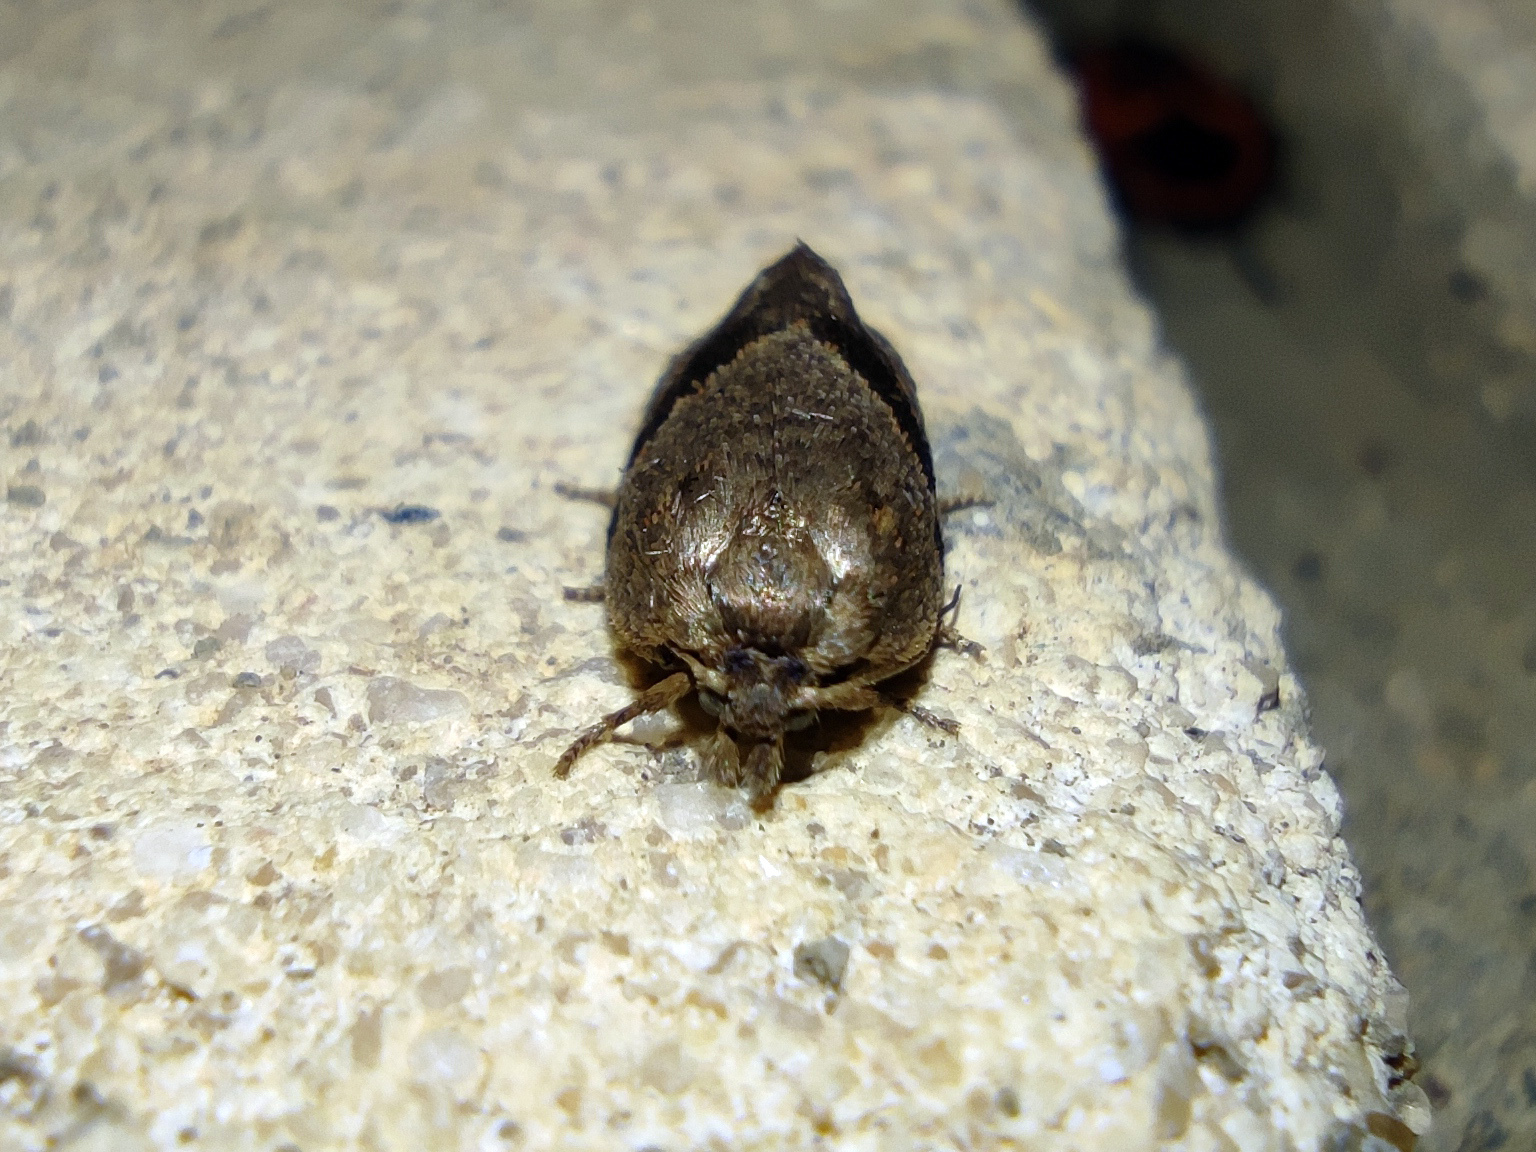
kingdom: Animalia
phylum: Arthropoda
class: Insecta
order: Lepidoptera
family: Depressariidae
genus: Semioscopis
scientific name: Semioscopis steinkellneriana
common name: Dawn flat-body
